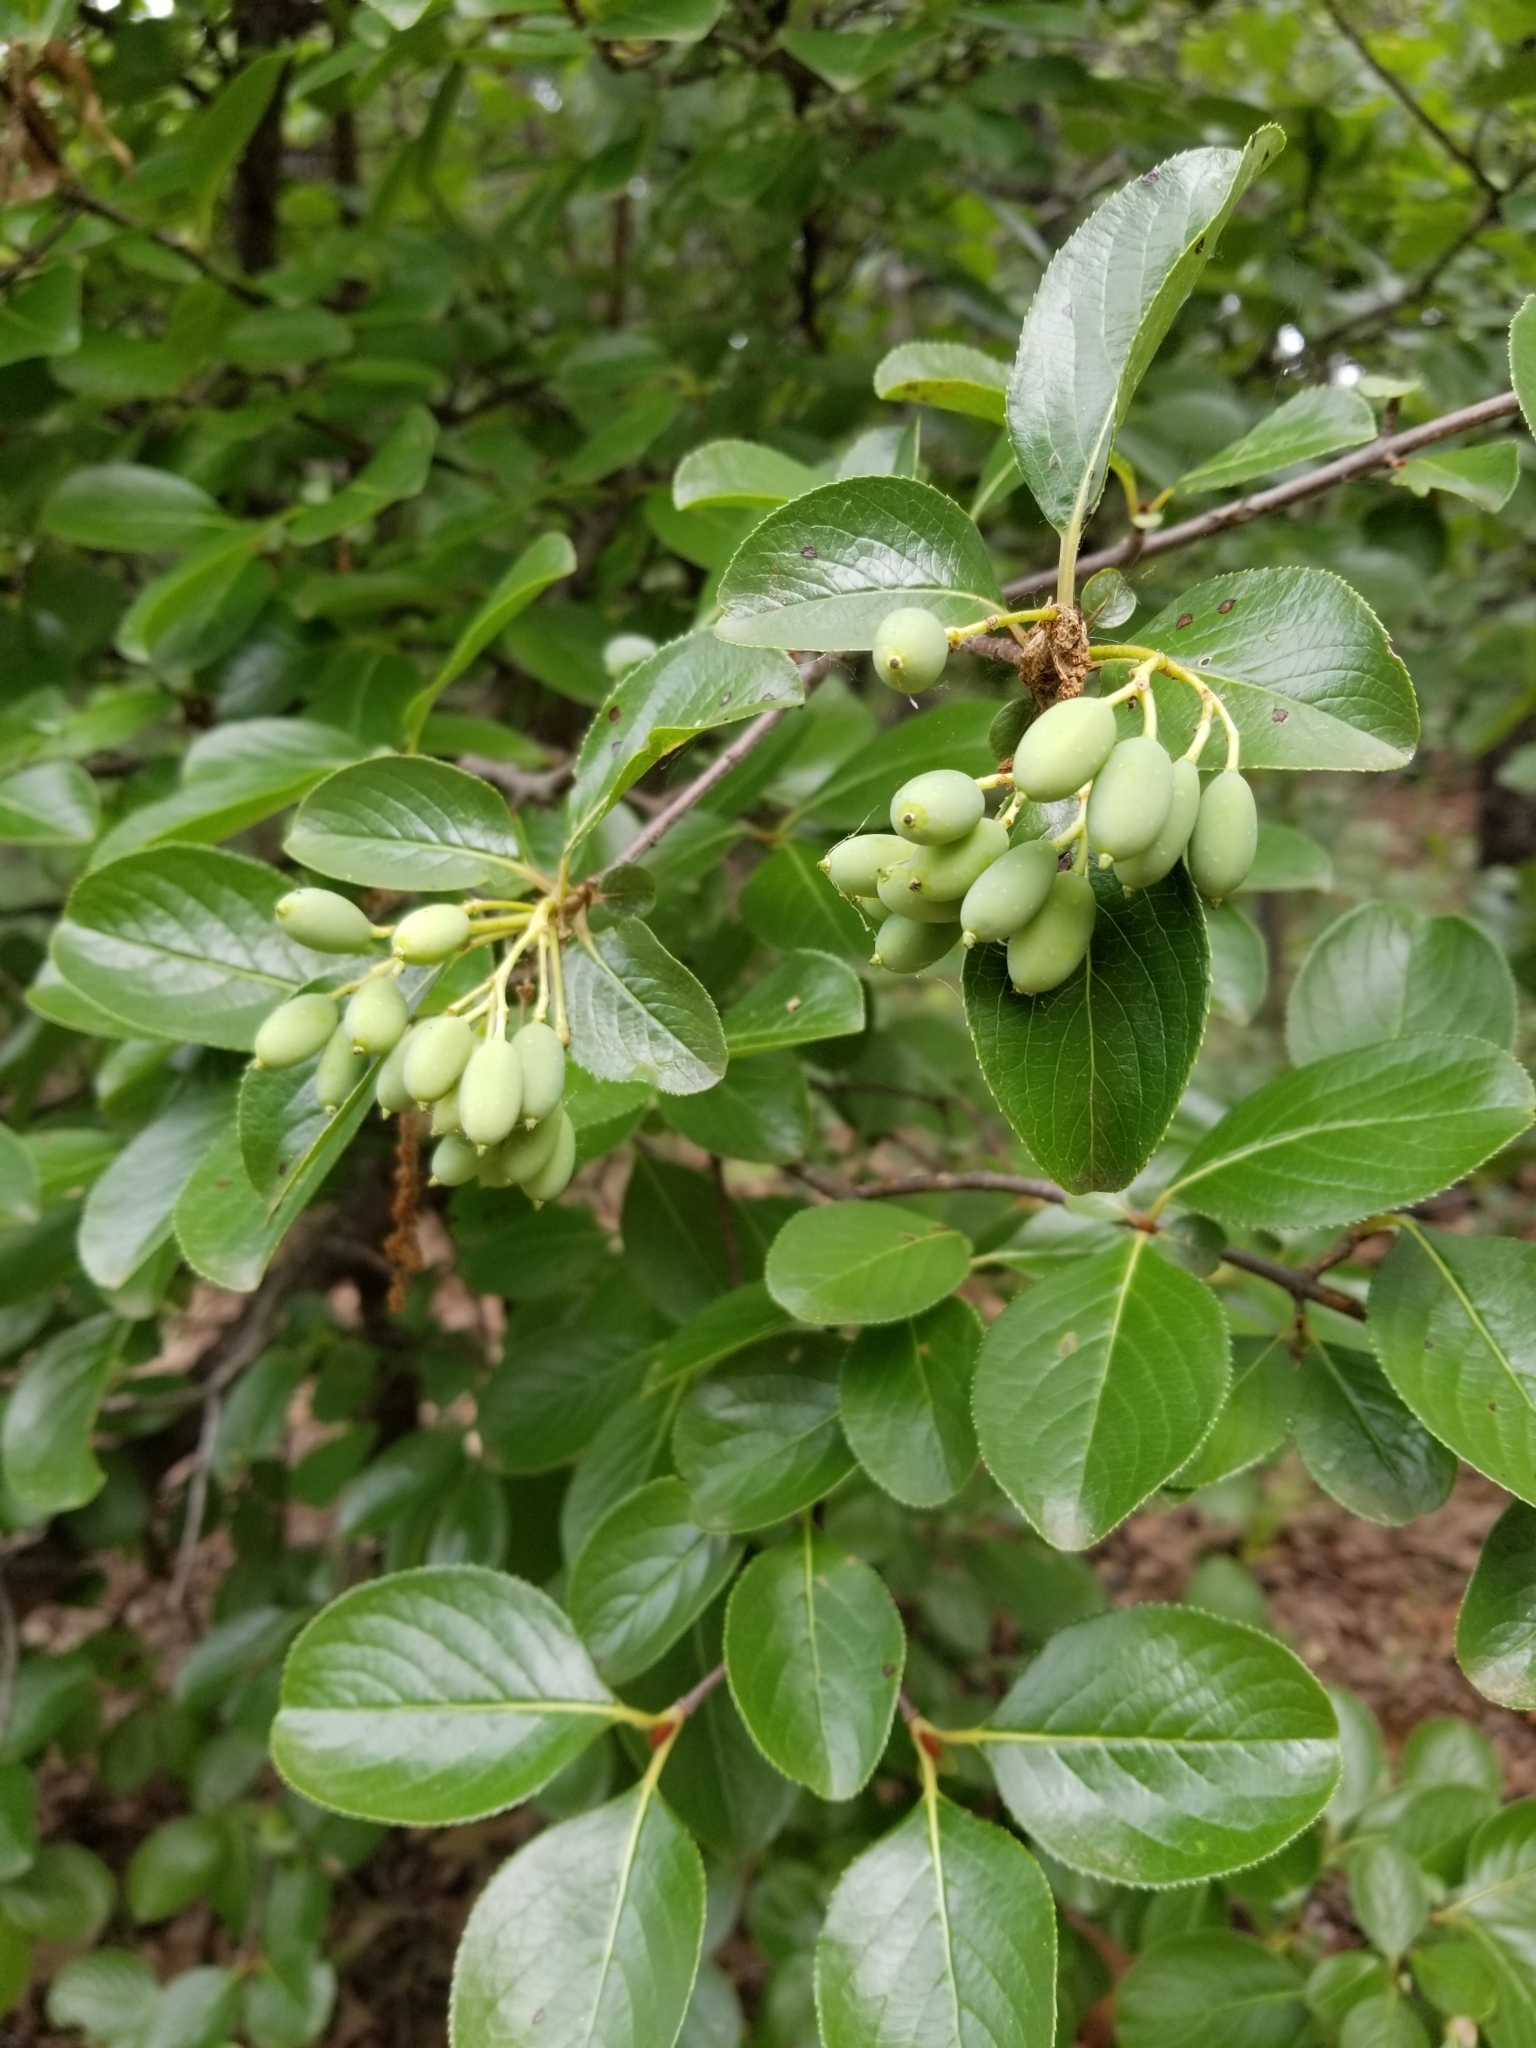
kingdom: Plantae
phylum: Tracheophyta
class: Magnoliopsida
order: Dipsacales
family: Viburnaceae
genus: Viburnum
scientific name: Viburnum rufidulum
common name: Blue haw
